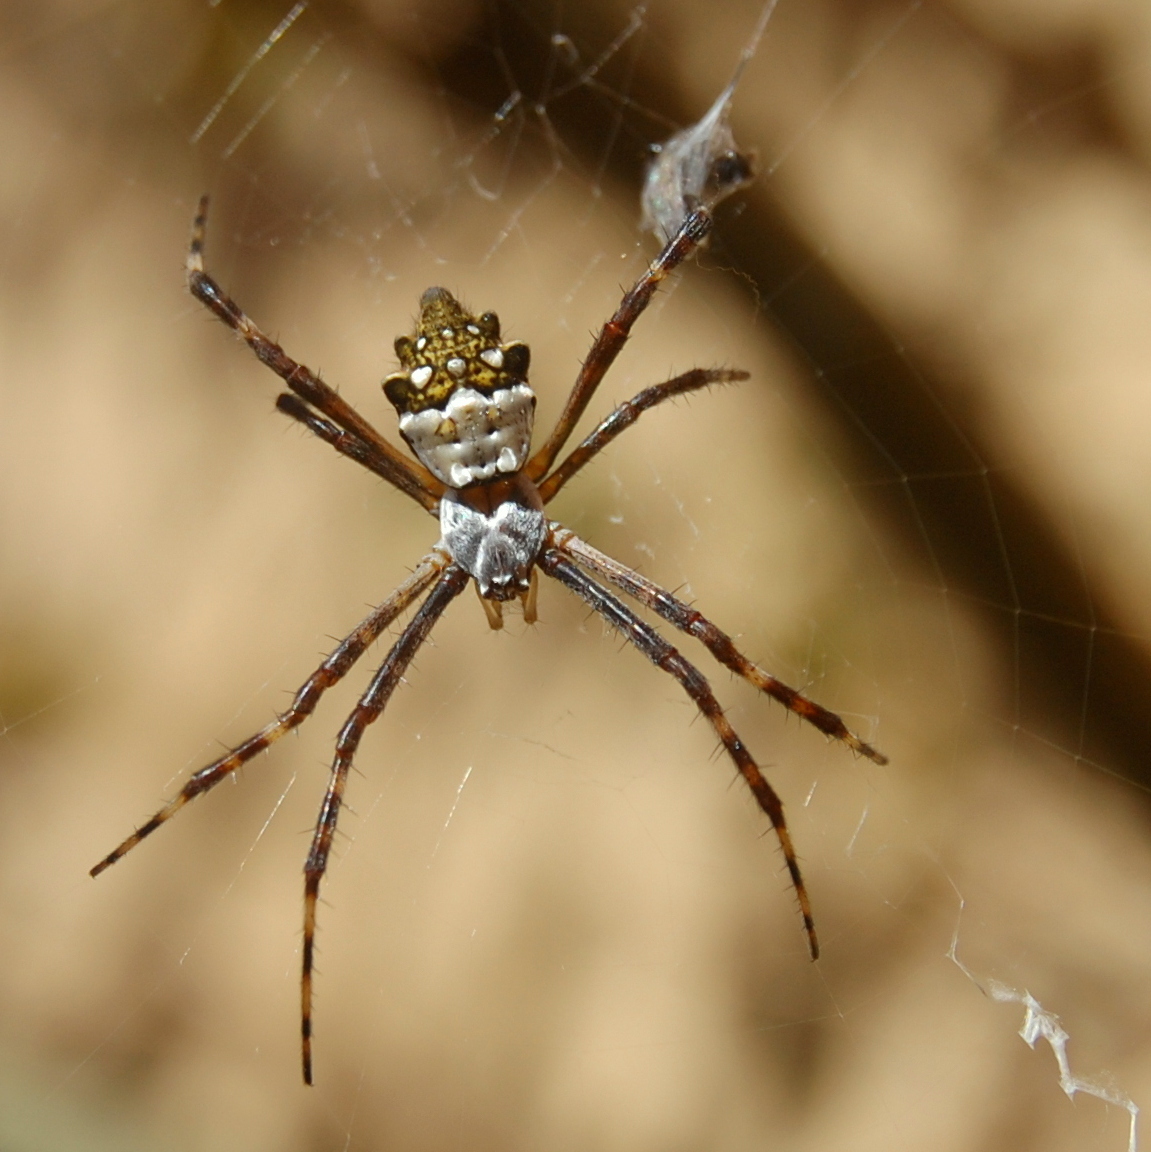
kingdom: Animalia
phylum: Arthropoda
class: Arachnida
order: Araneae
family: Araneidae
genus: Argiope
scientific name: Argiope argentata
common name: Orb weavers
